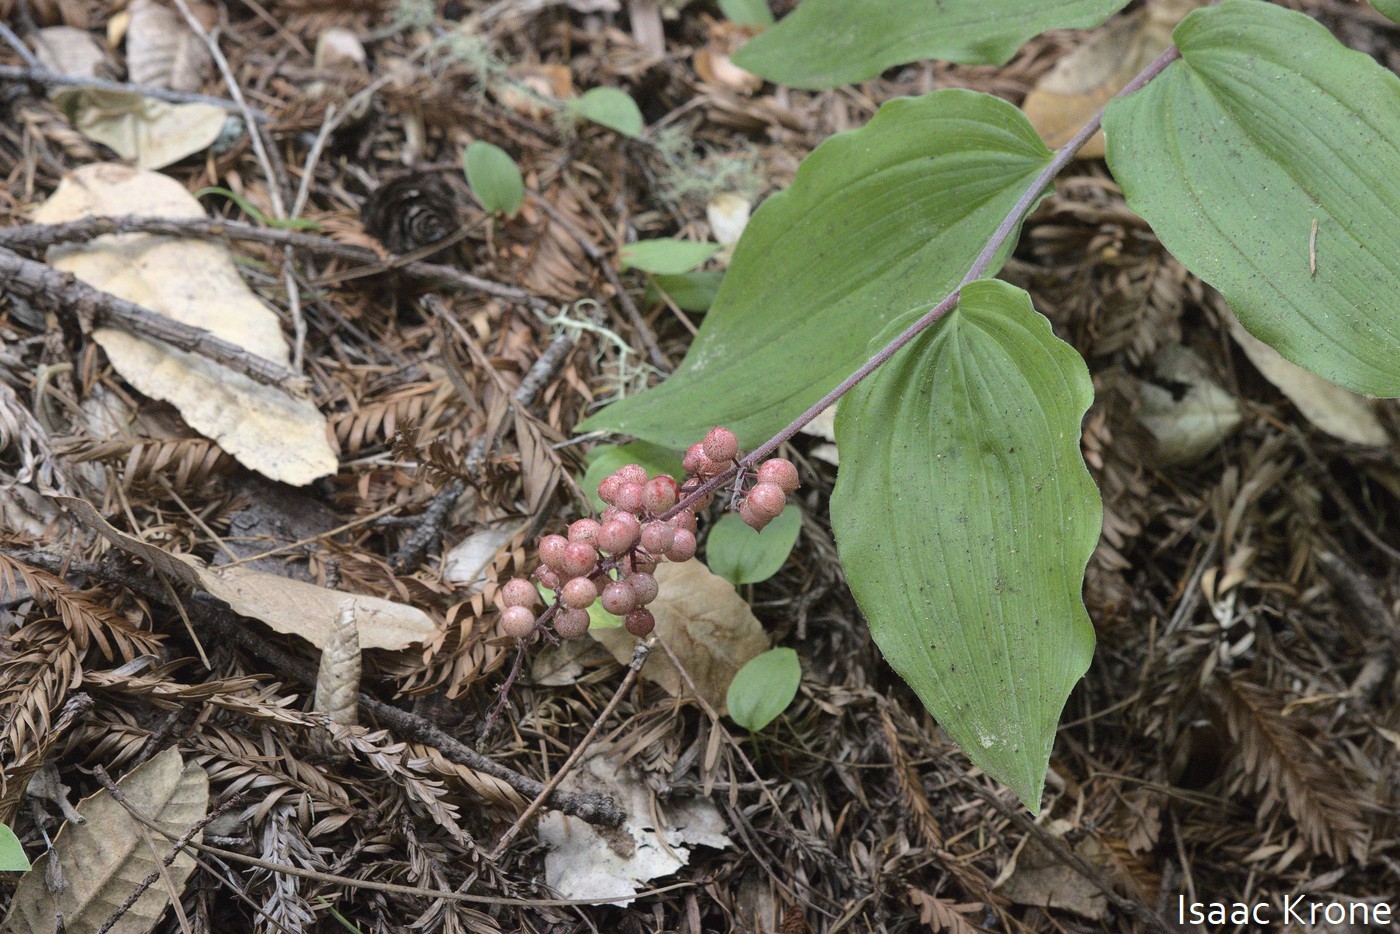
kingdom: Plantae
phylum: Tracheophyta
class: Liliopsida
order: Asparagales
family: Asparagaceae
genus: Maianthemum
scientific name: Maianthemum racemosum
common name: False spikenard
